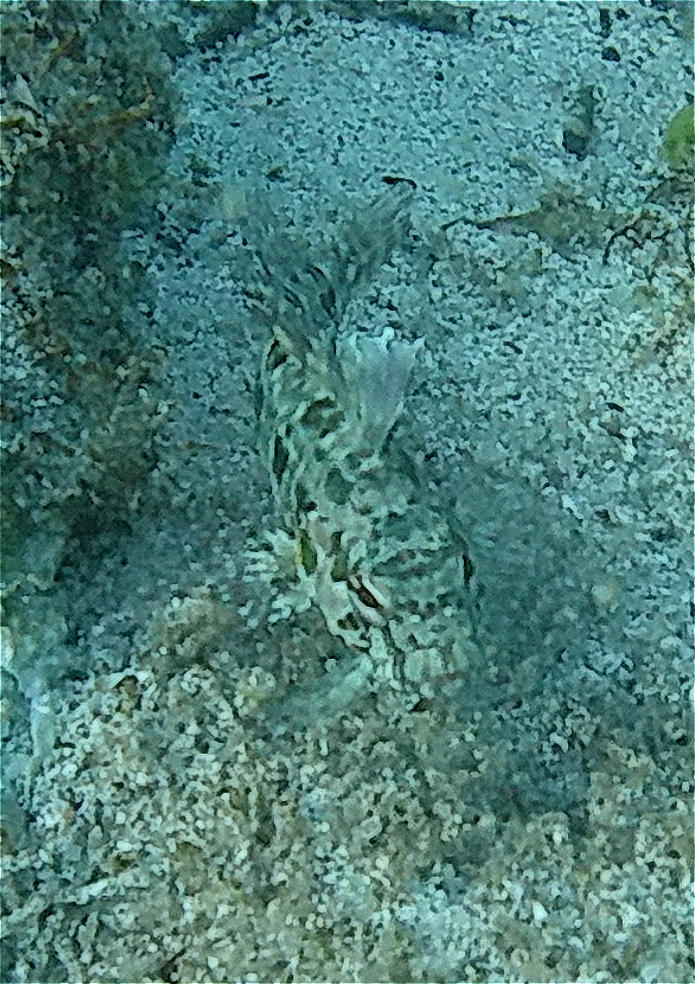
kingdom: Animalia
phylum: Chordata
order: Perciformes
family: Labrisomidae
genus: Gobioclinus
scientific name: Gobioclinus dendriticus
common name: Bravo clinid
